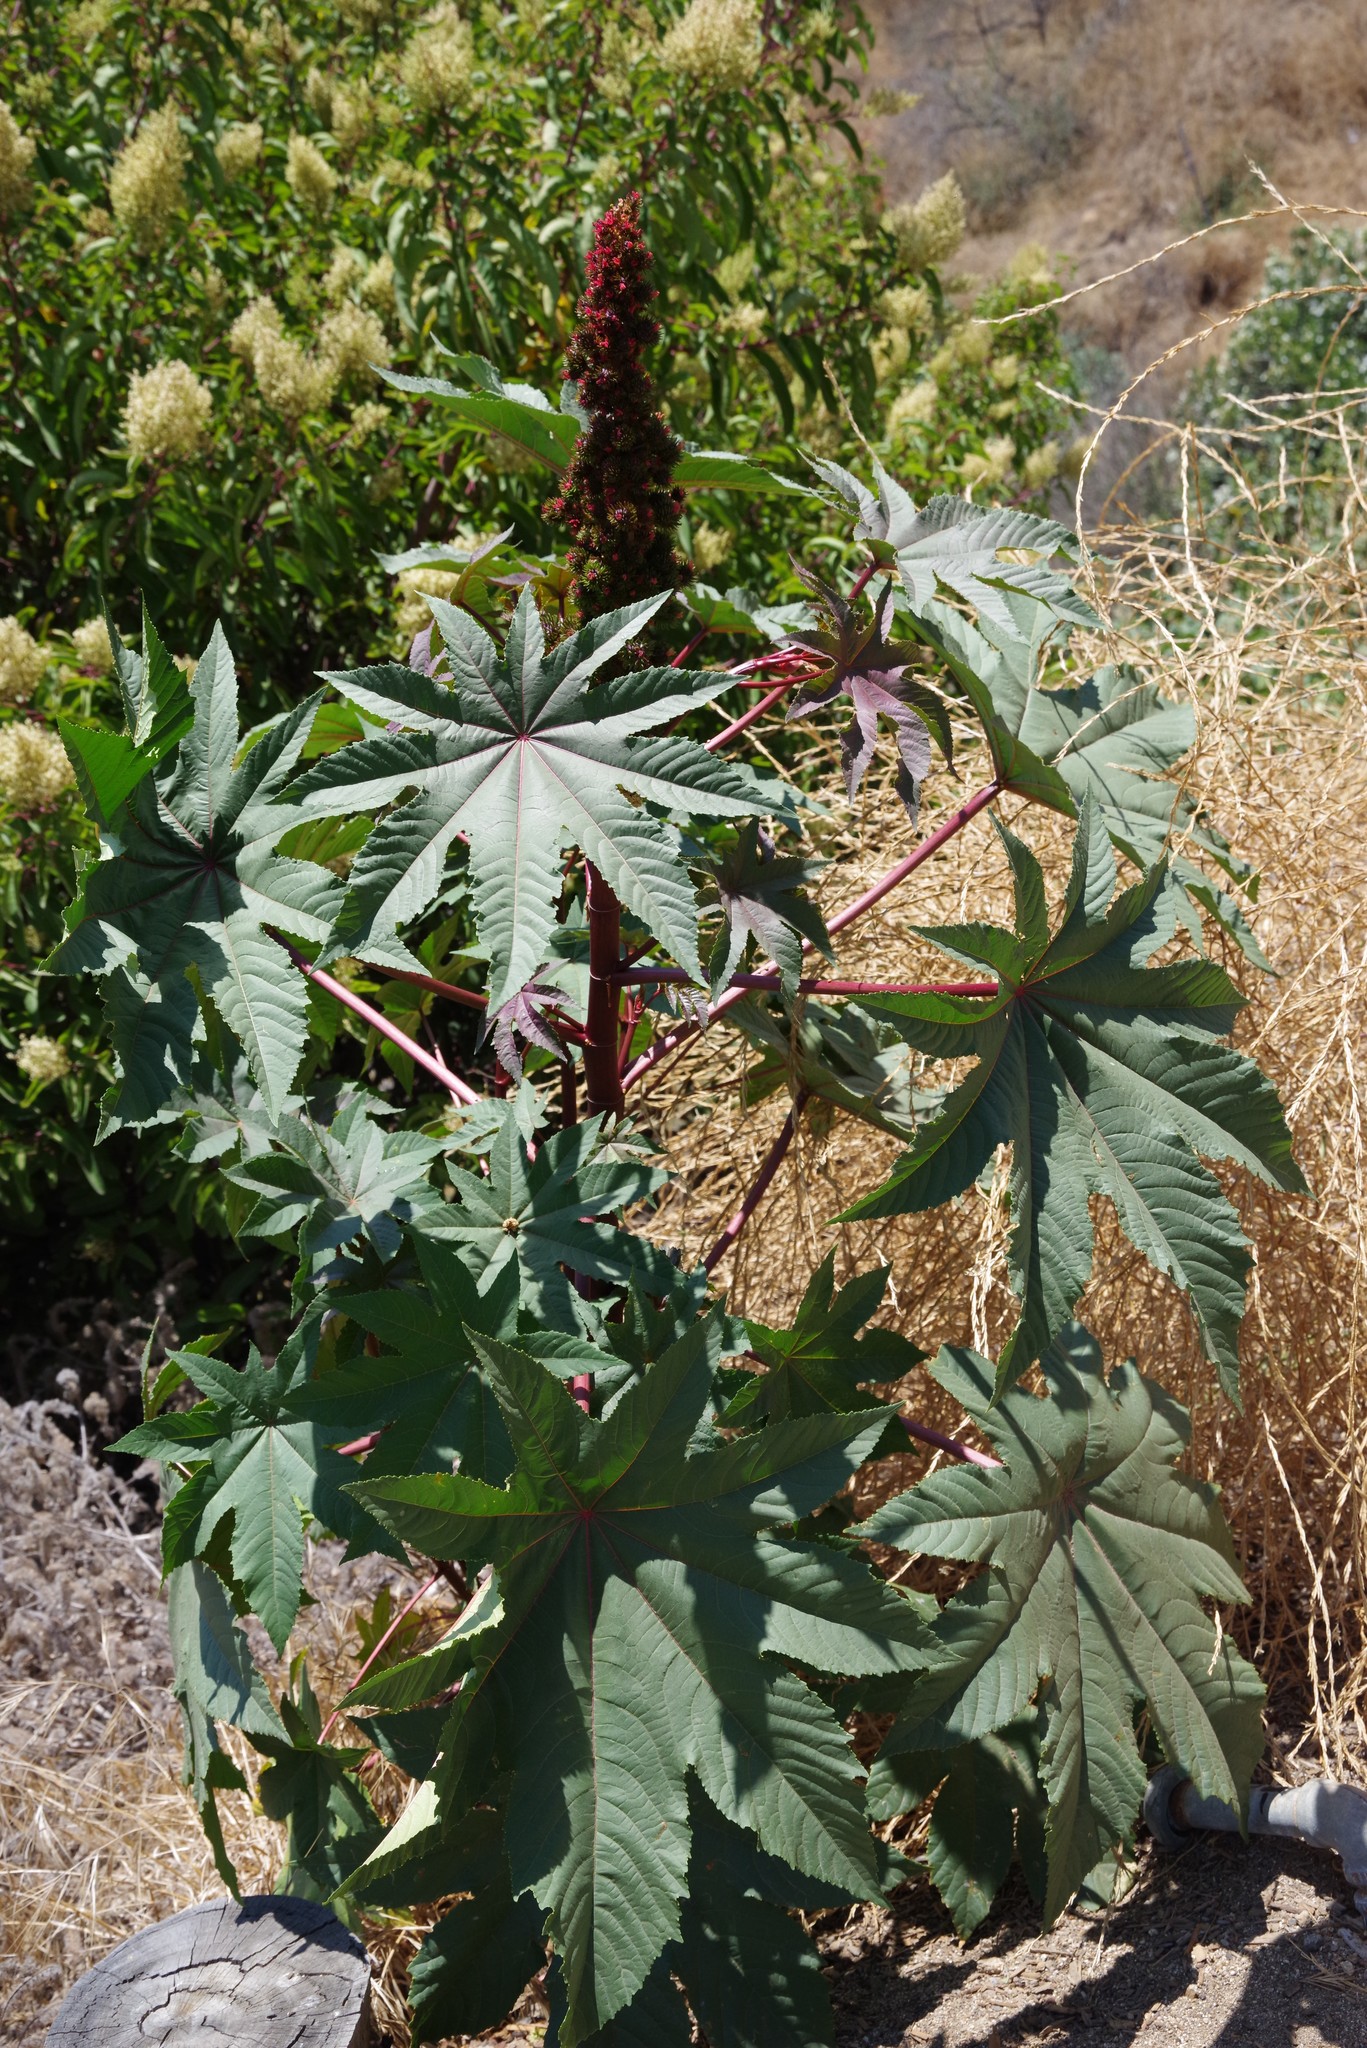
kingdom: Plantae
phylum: Tracheophyta
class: Magnoliopsida
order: Malpighiales
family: Euphorbiaceae
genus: Ricinus
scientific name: Ricinus communis
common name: Castor-oil-plant
